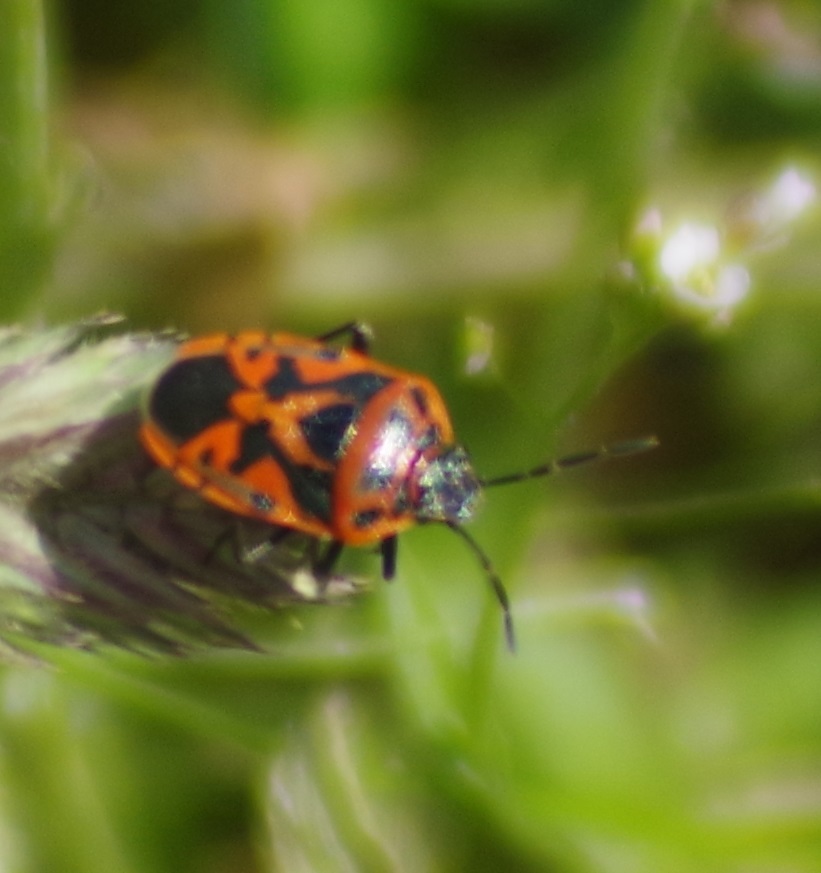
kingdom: Animalia
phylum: Arthropoda
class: Insecta
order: Hemiptera
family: Pentatomidae
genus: Eurydema
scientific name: Eurydema ornata
